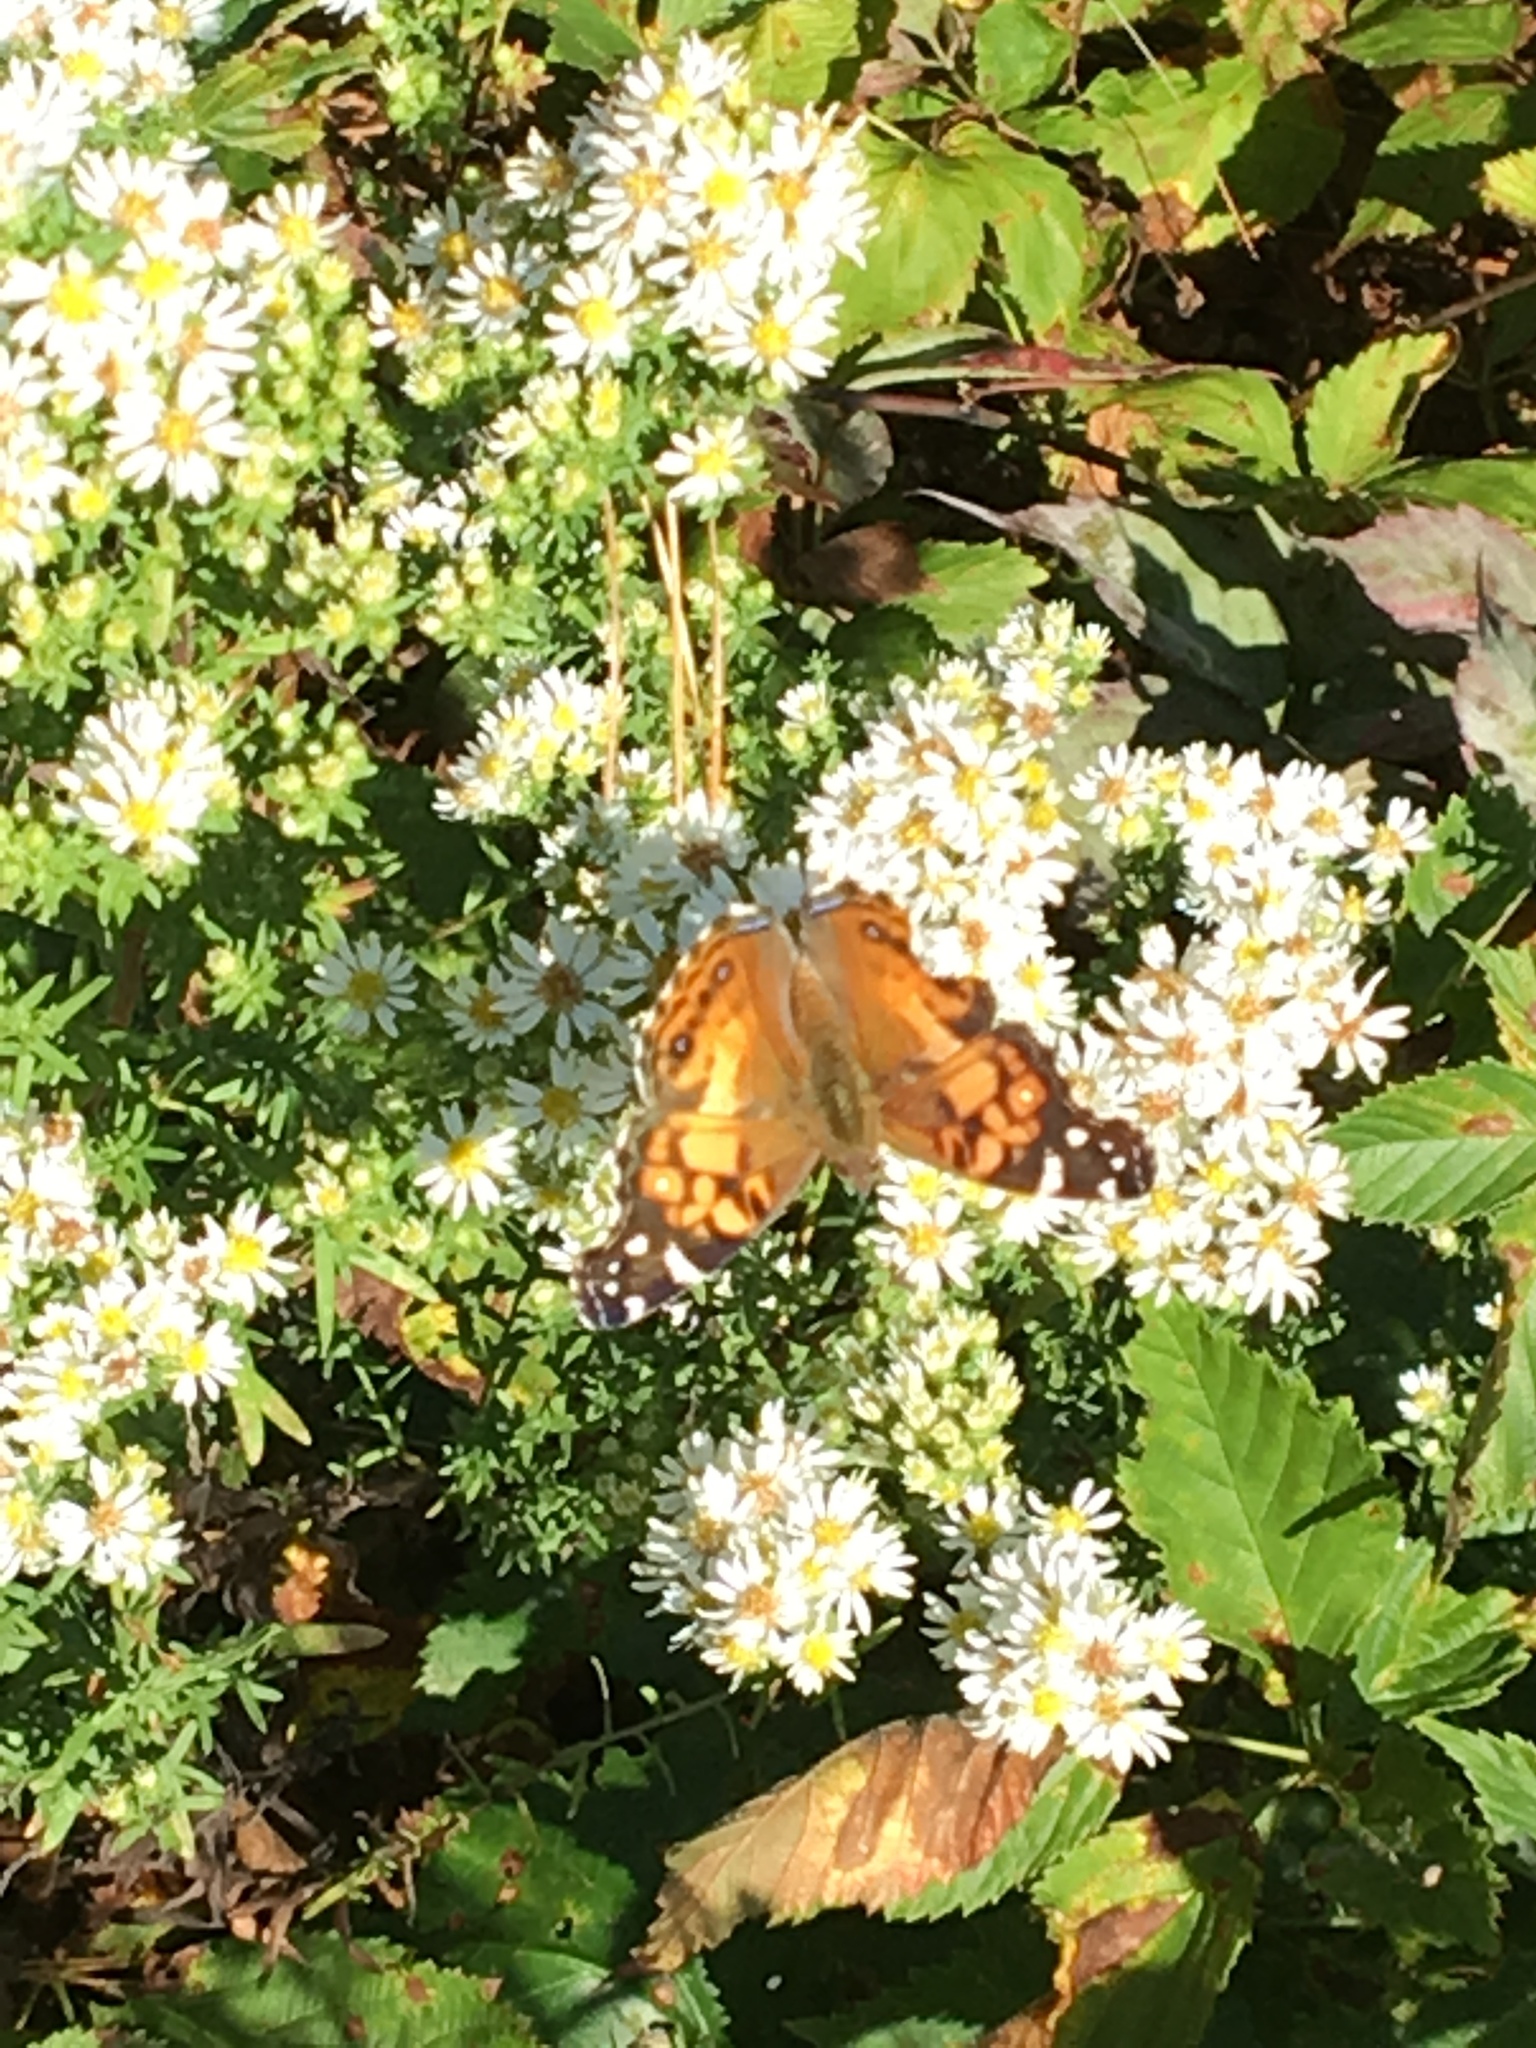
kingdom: Animalia
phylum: Arthropoda
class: Insecta
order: Lepidoptera
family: Nymphalidae
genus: Vanessa
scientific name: Vanessa virginiensis
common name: American lady
